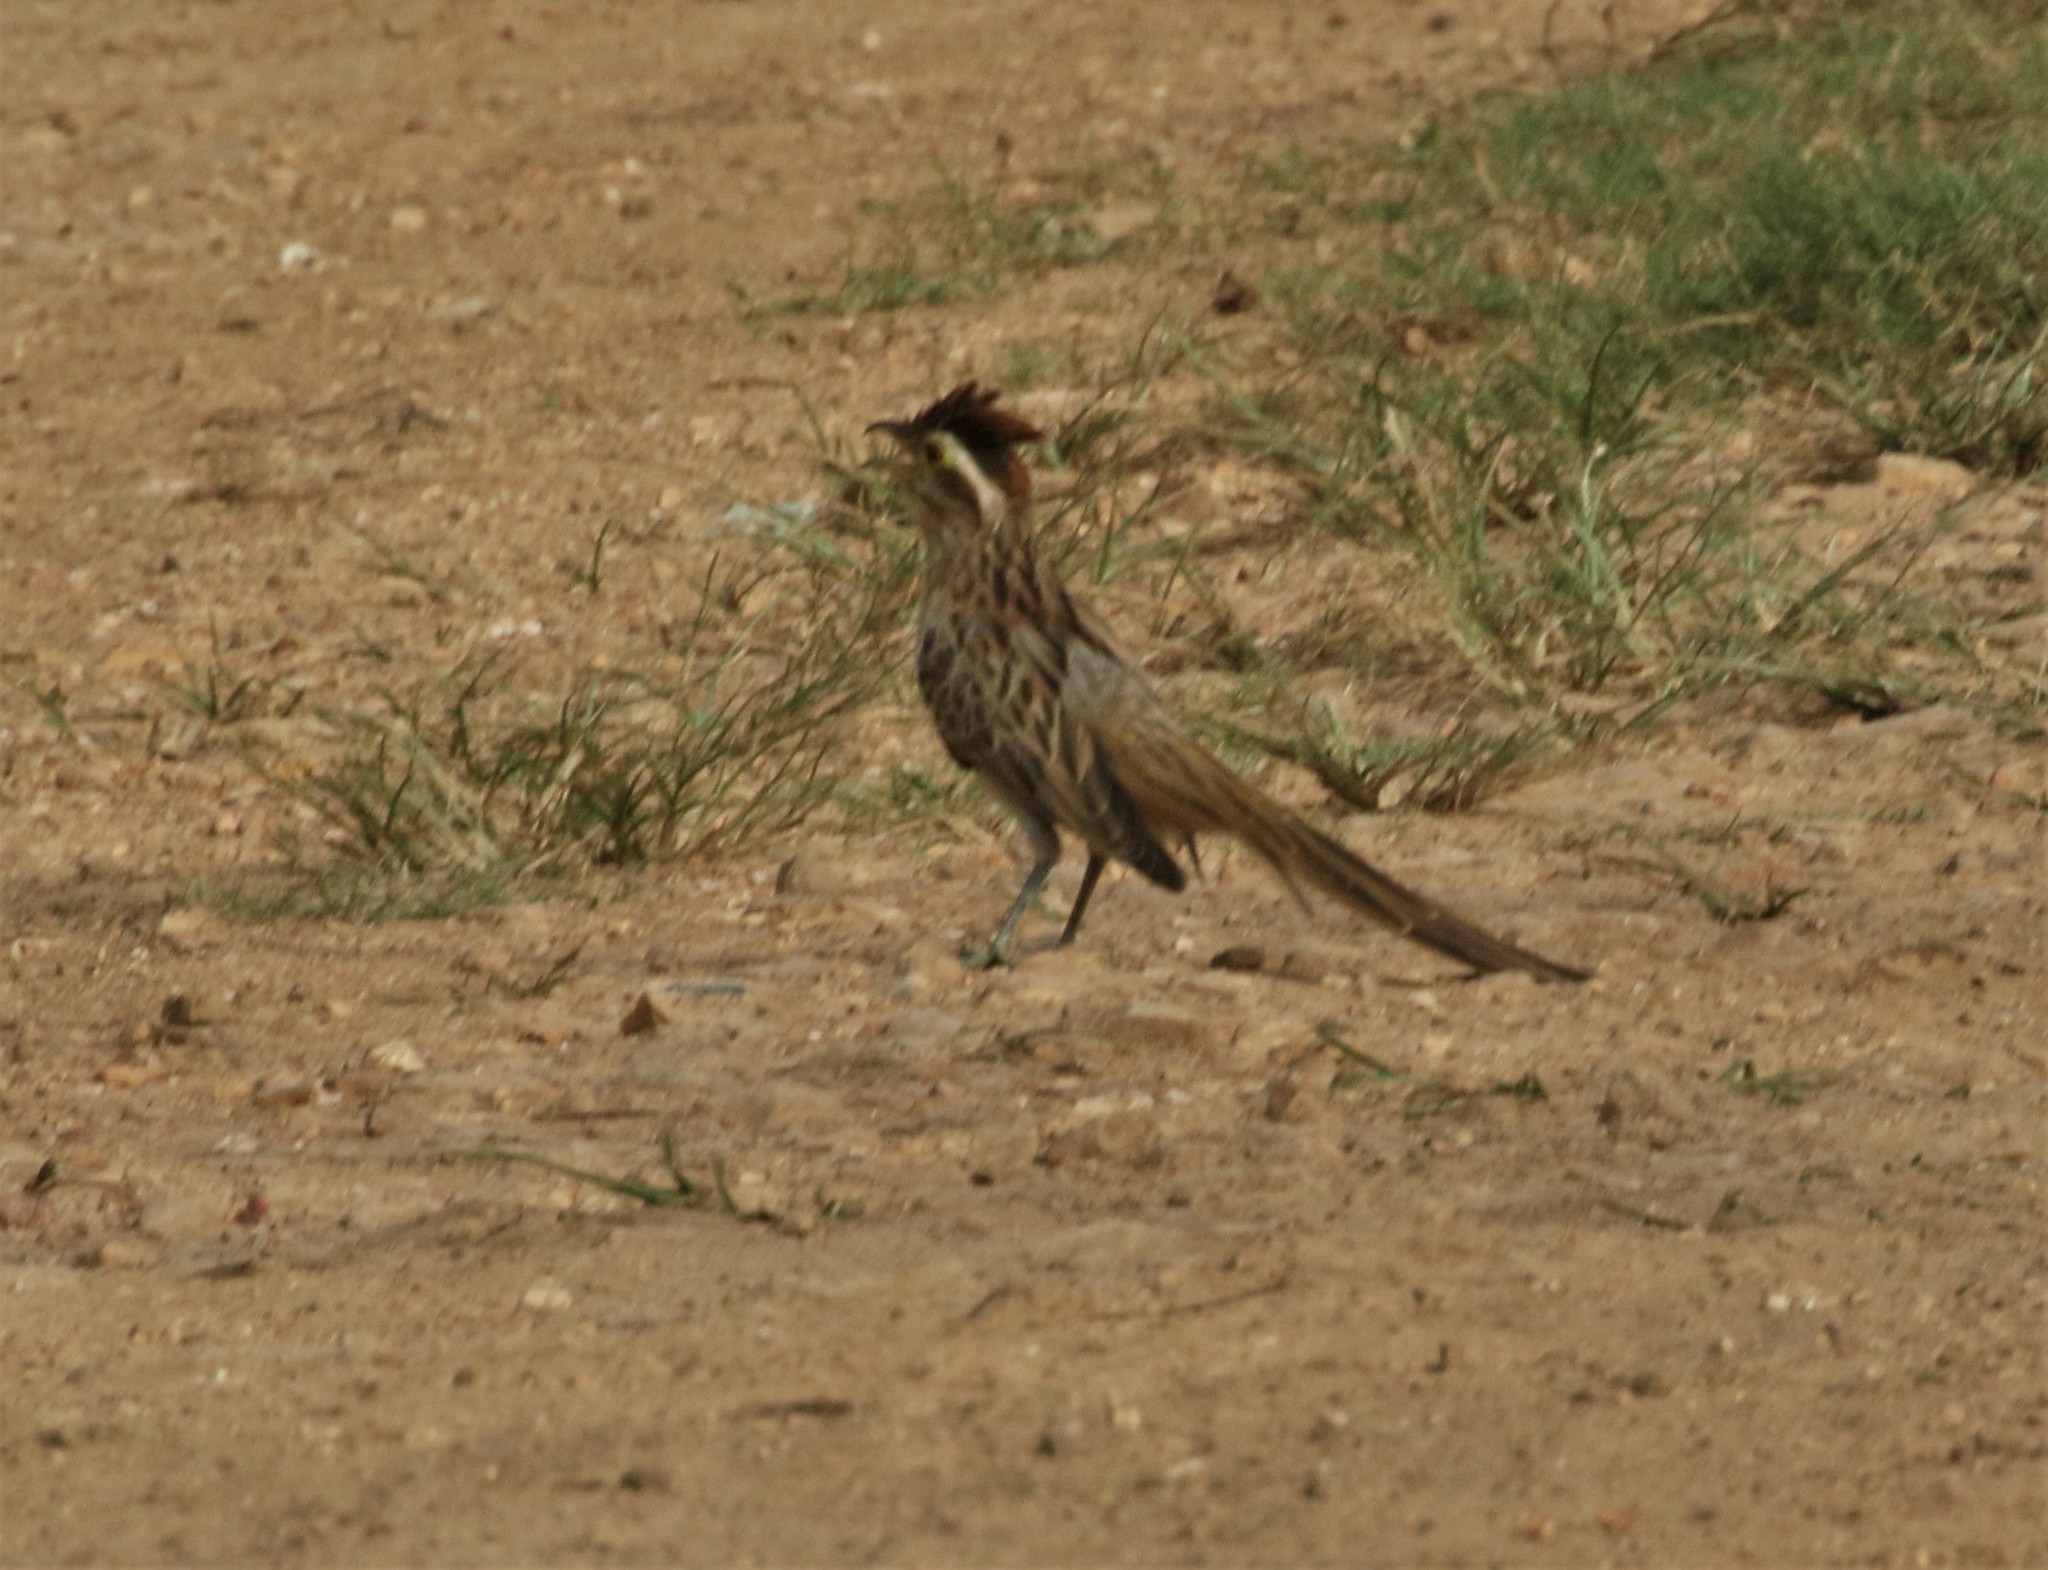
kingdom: Animalia
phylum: Chordata
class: Aves
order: Cuculiformes
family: Cuculidae
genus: Tapera
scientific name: Tapera naevia
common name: Striped cuckoo
